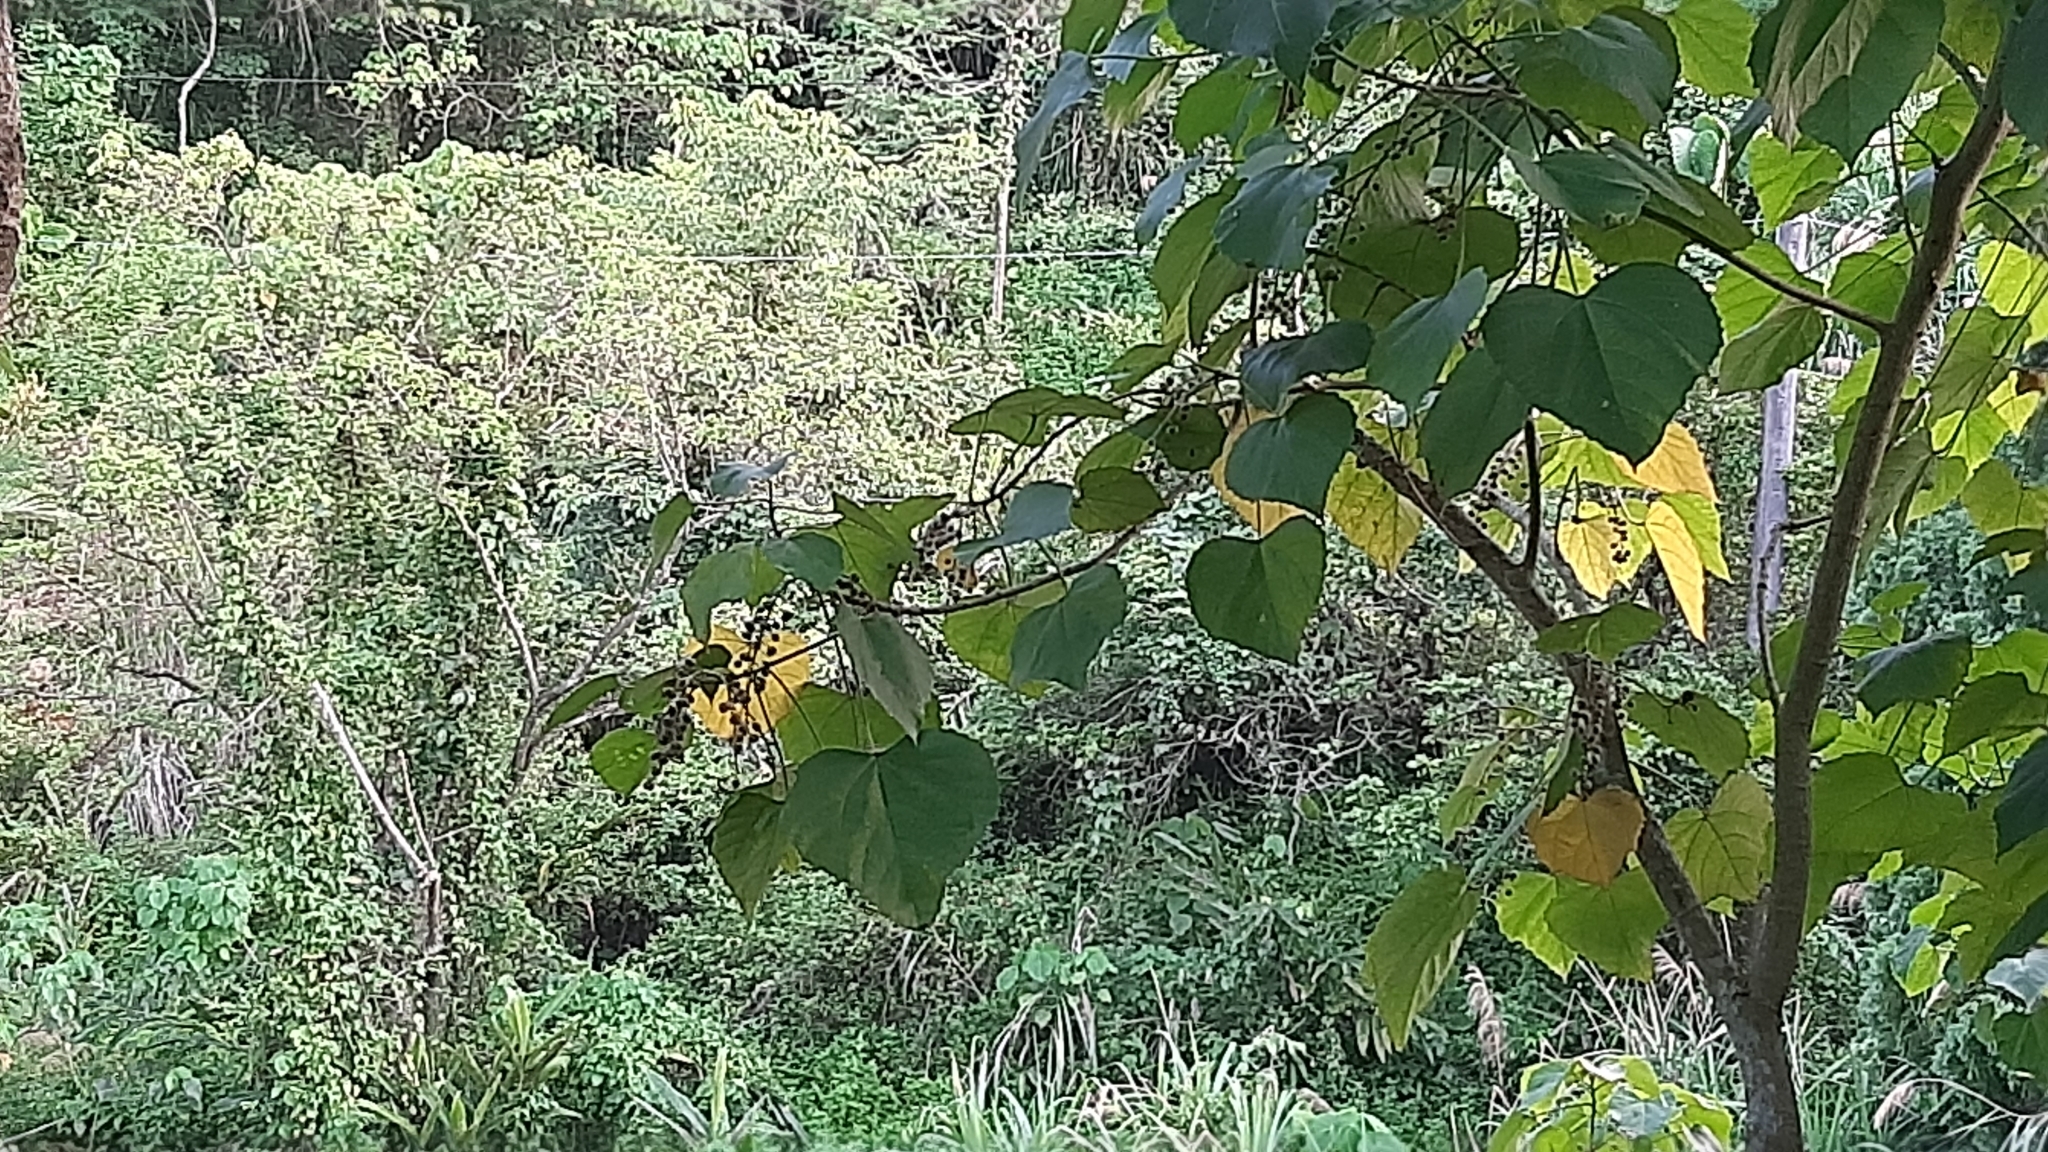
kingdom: Plantae
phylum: Tracheophyta
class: Magnoliopsida
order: Malpighiales
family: Euphorbiaceae
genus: Melanolepis
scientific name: Melanolepis multiglandulosa
